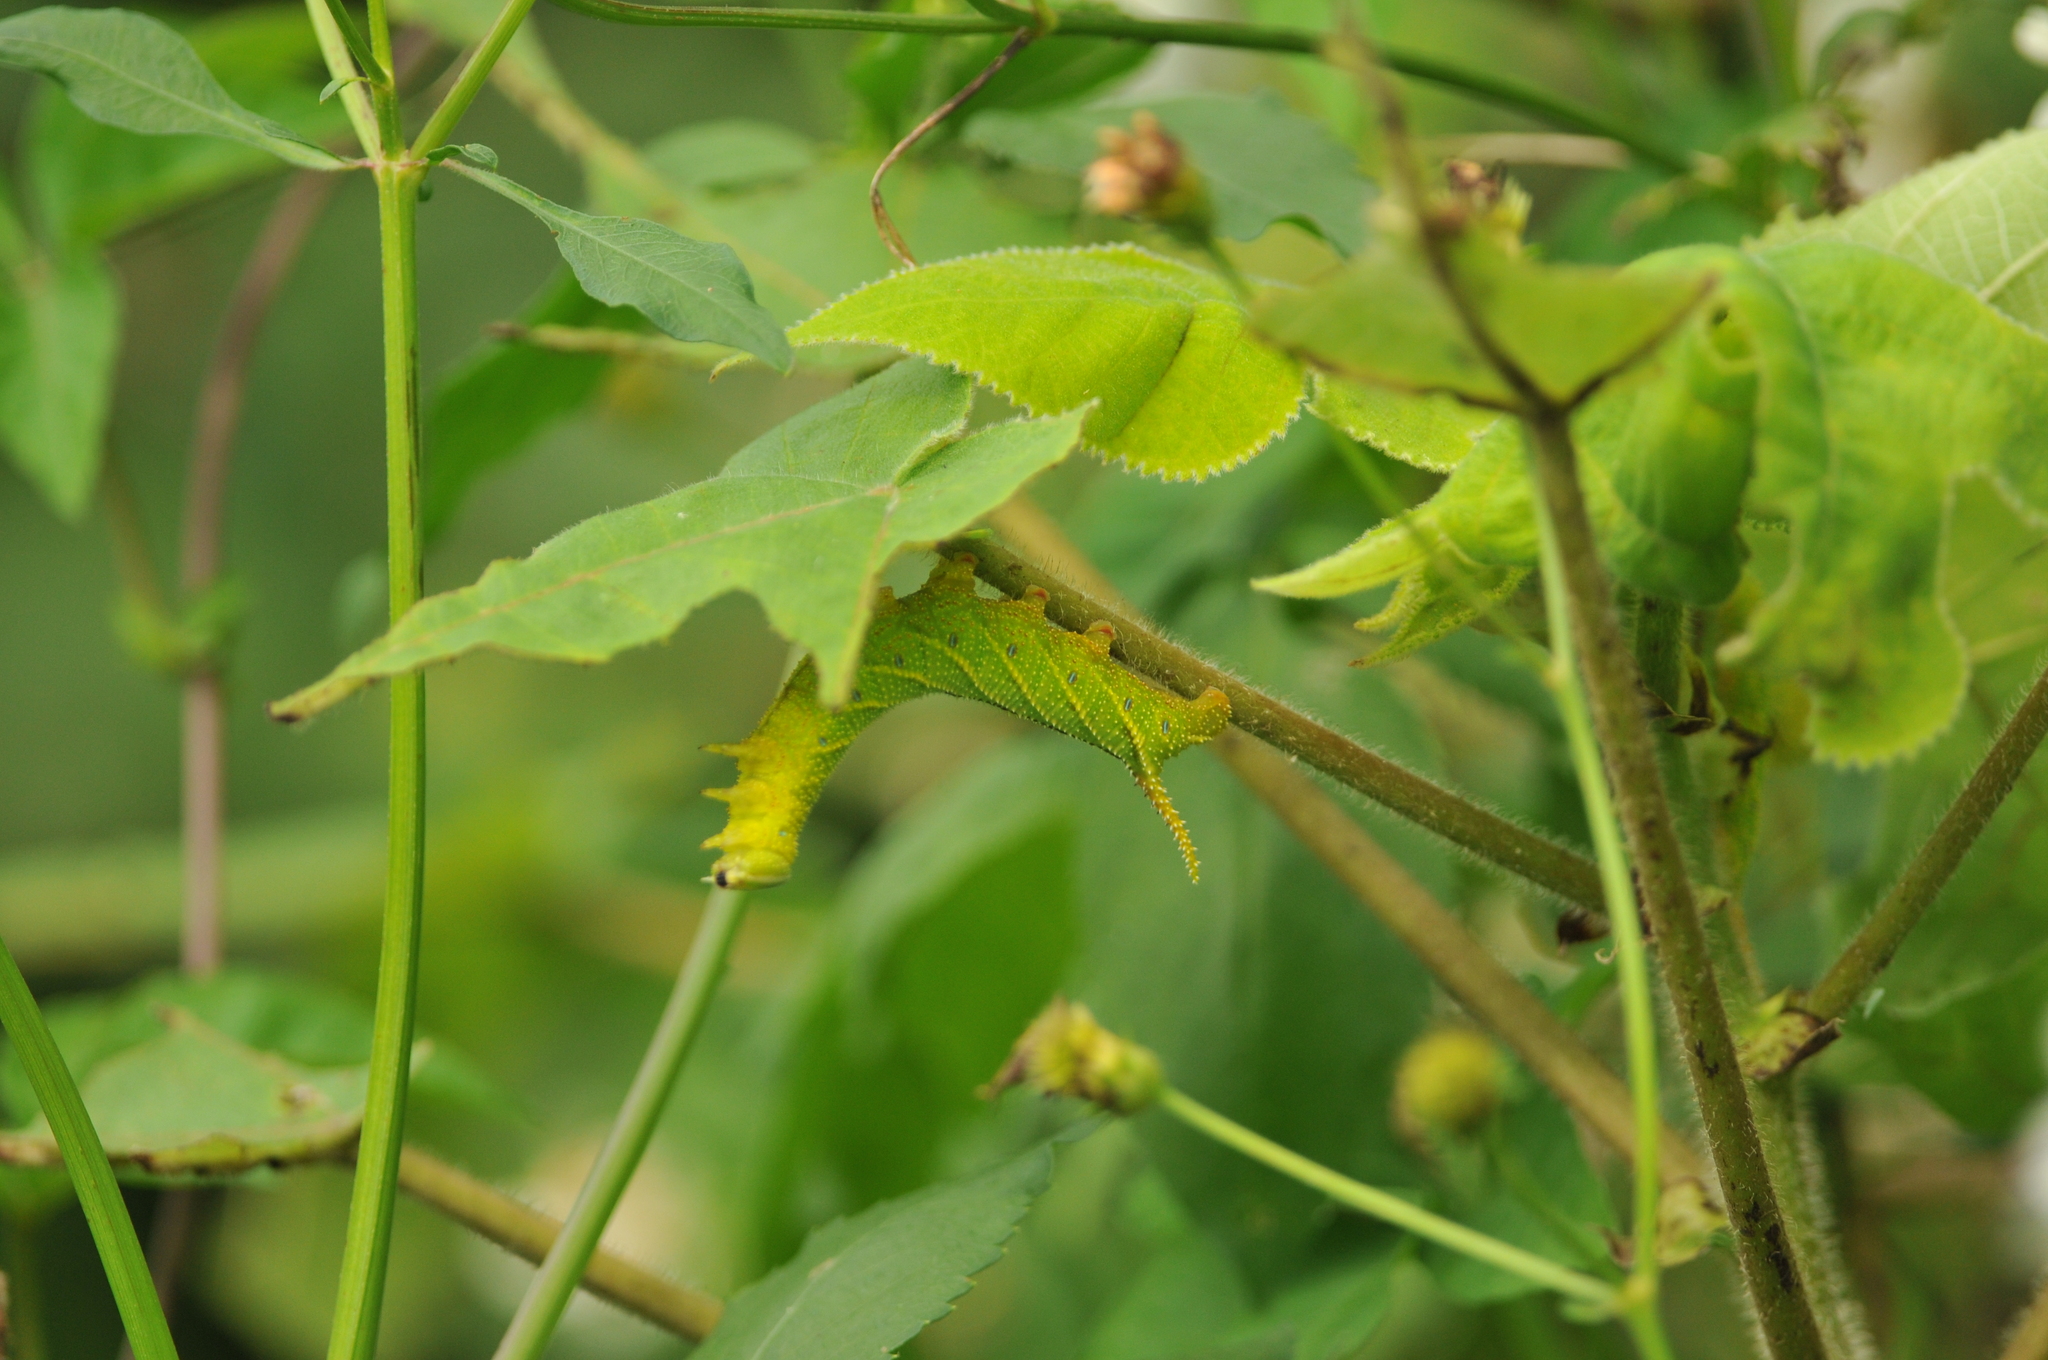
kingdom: Animalia
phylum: Arthropoda
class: Insecta
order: Lepidoptera
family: Sphingidae
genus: Parum
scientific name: Parum colligata
